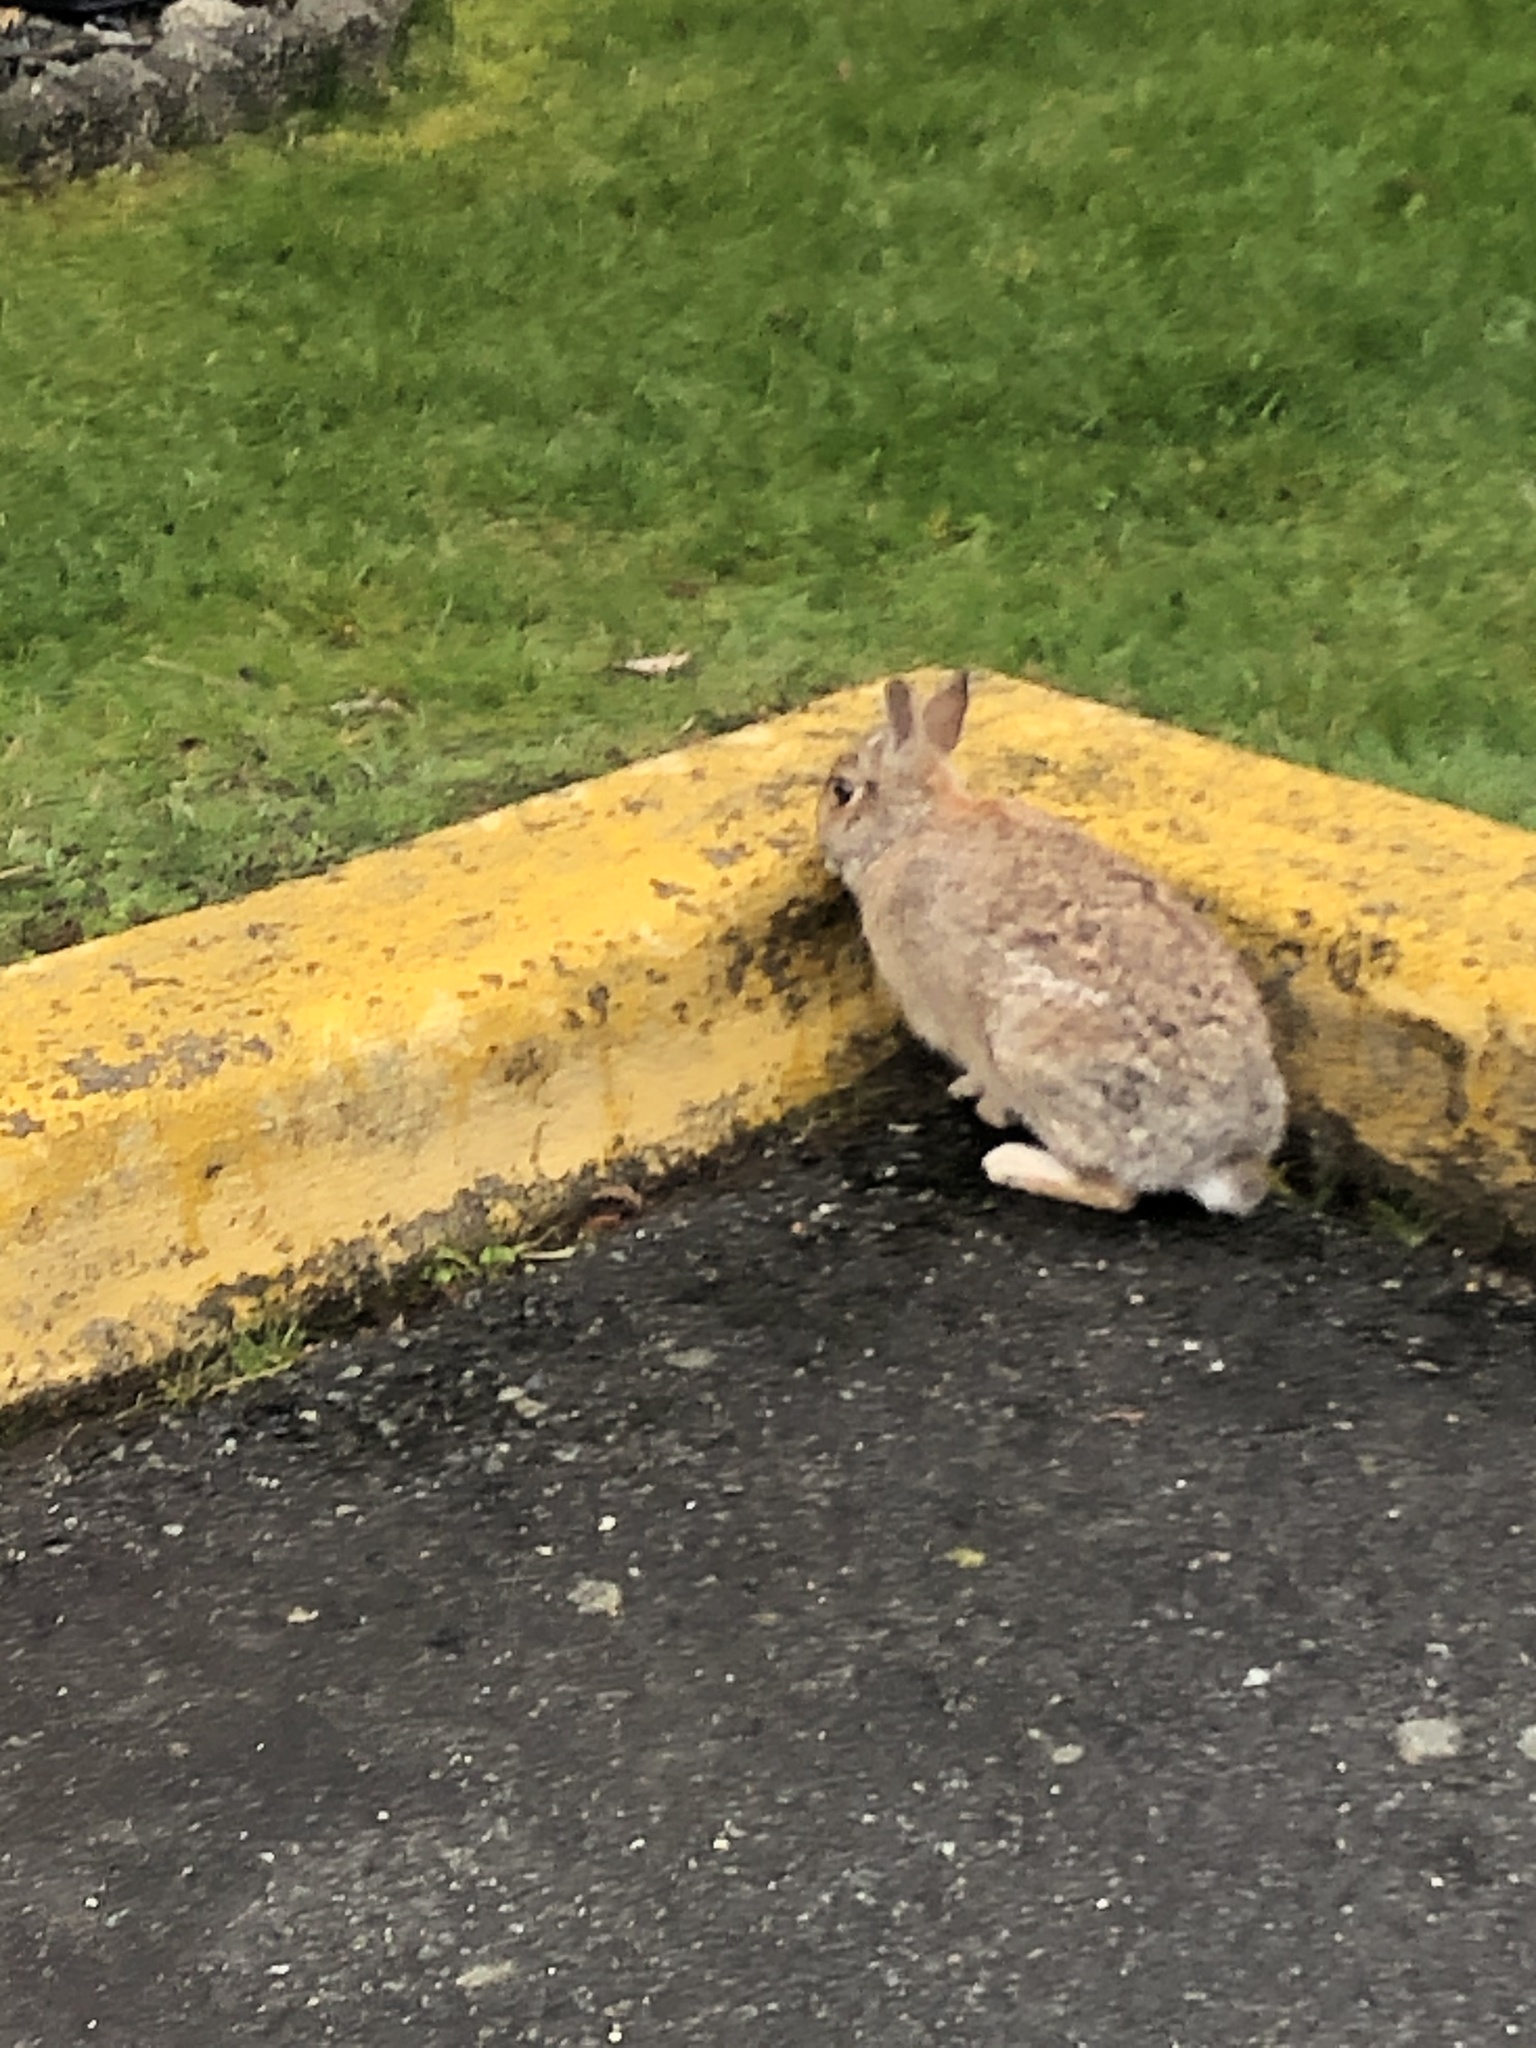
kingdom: Animalia
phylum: Chordata
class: Mammalia
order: Lagomorpha
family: Leporidae
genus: Sylvilagus
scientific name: Sylvilagus floridanus
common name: Eastern cottontail
